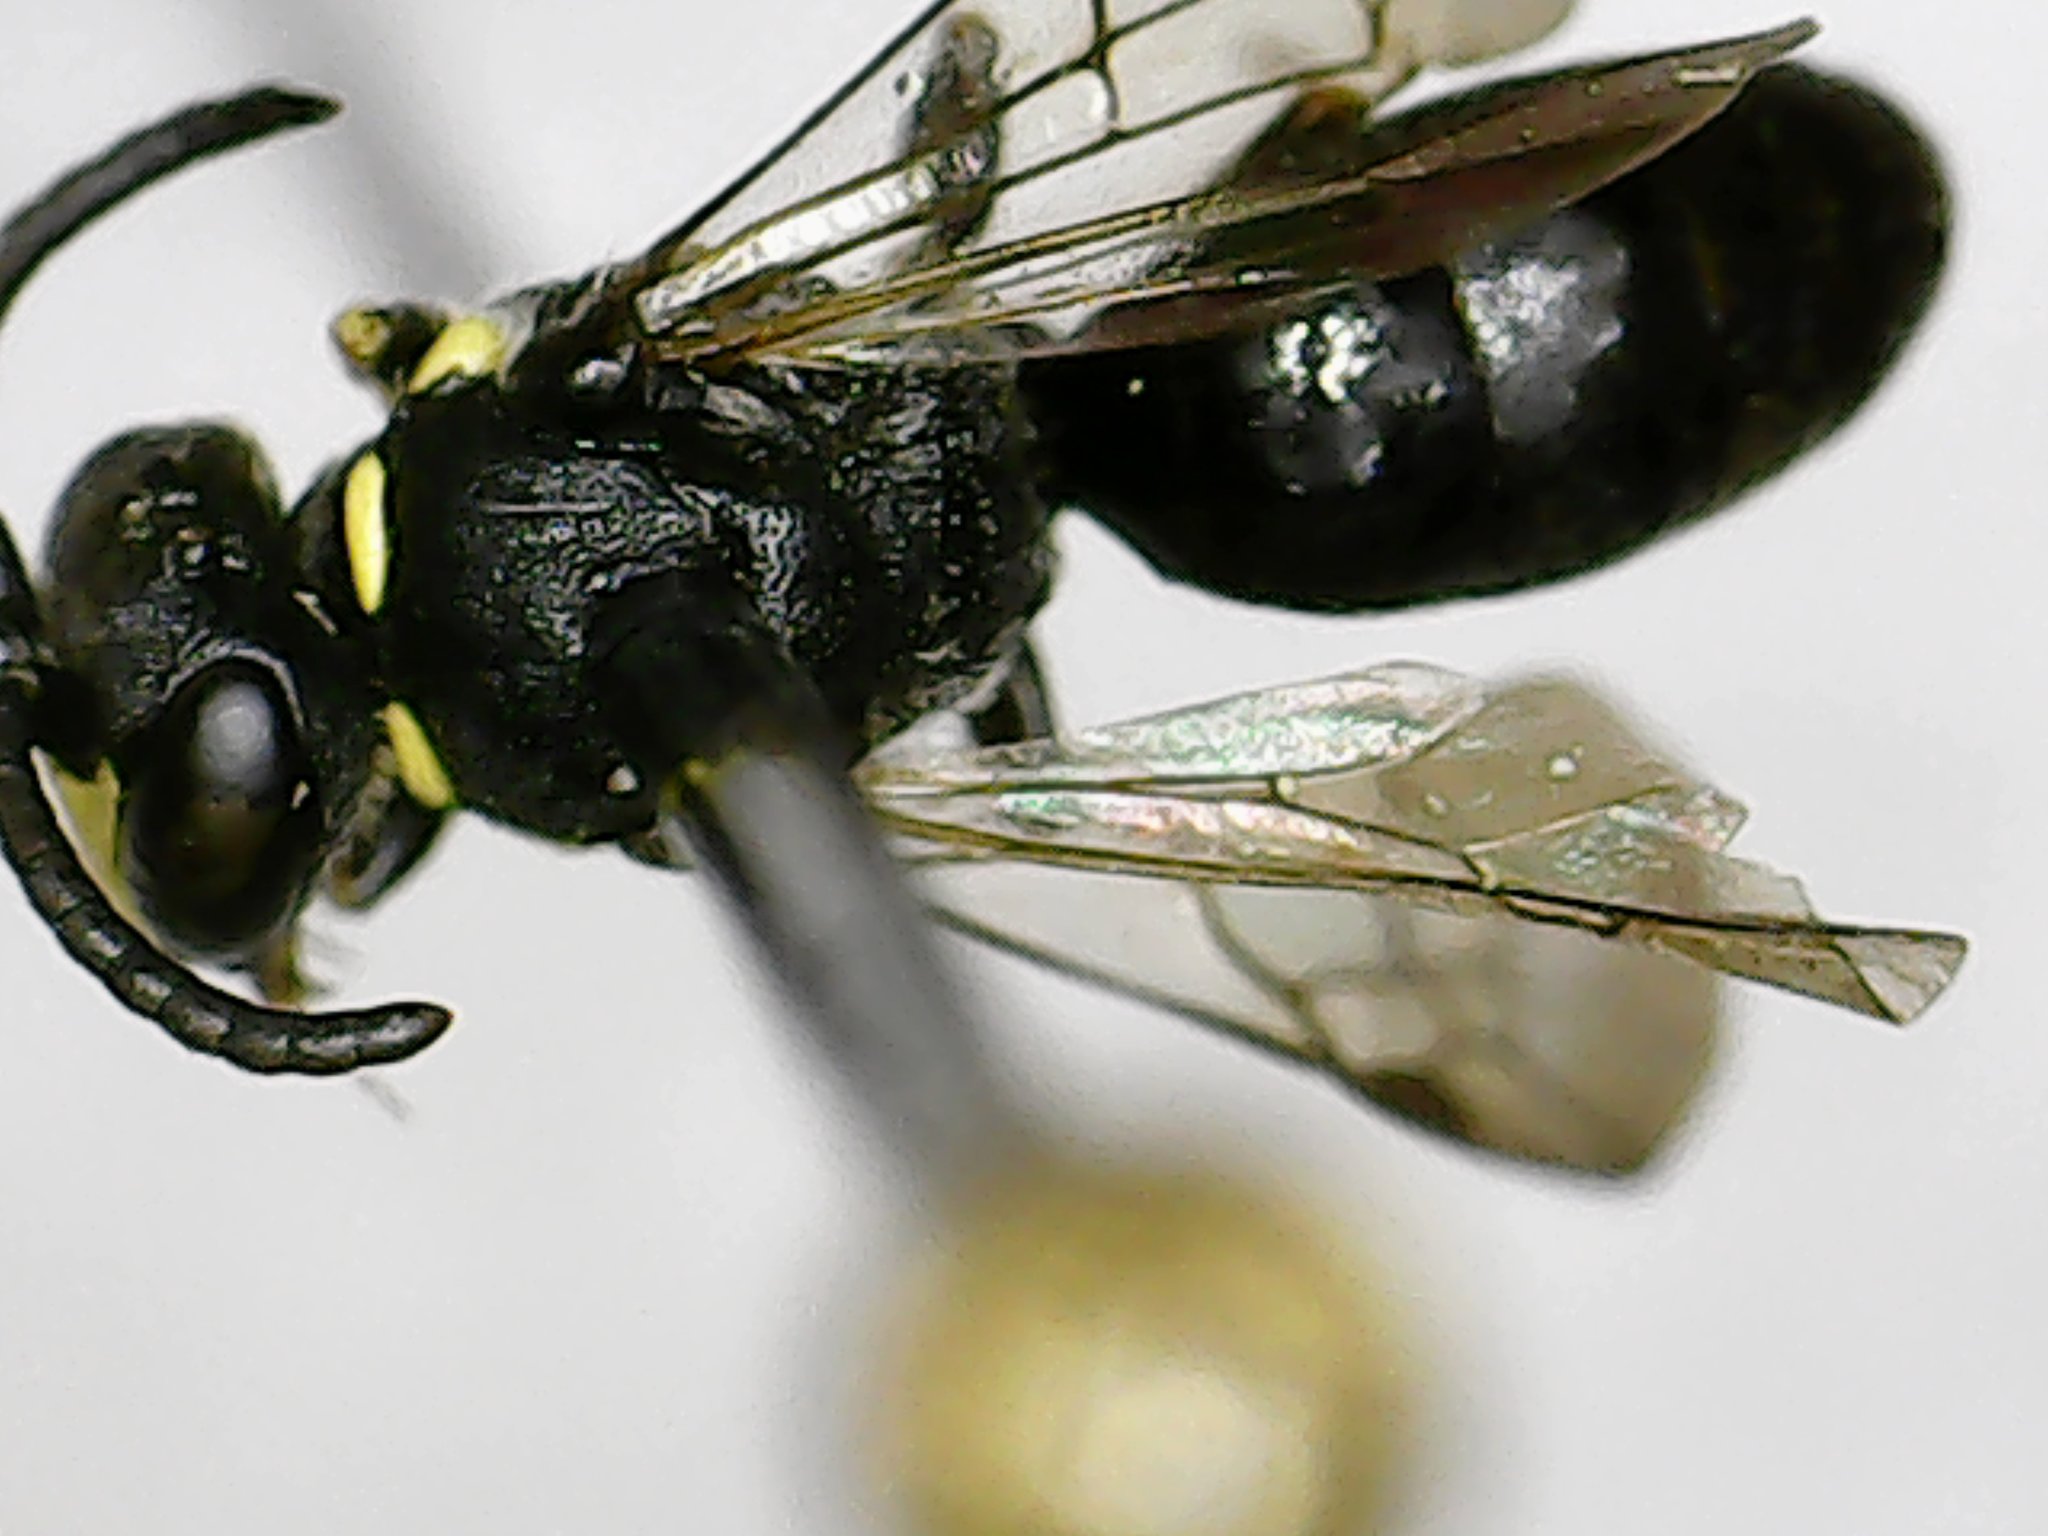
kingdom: Animalia
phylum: Arthropoda
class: Insecta
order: Hymenoptera
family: Colletidae
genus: Hylaeus
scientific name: Hylaeus modestus
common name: Yellow-faced bee
